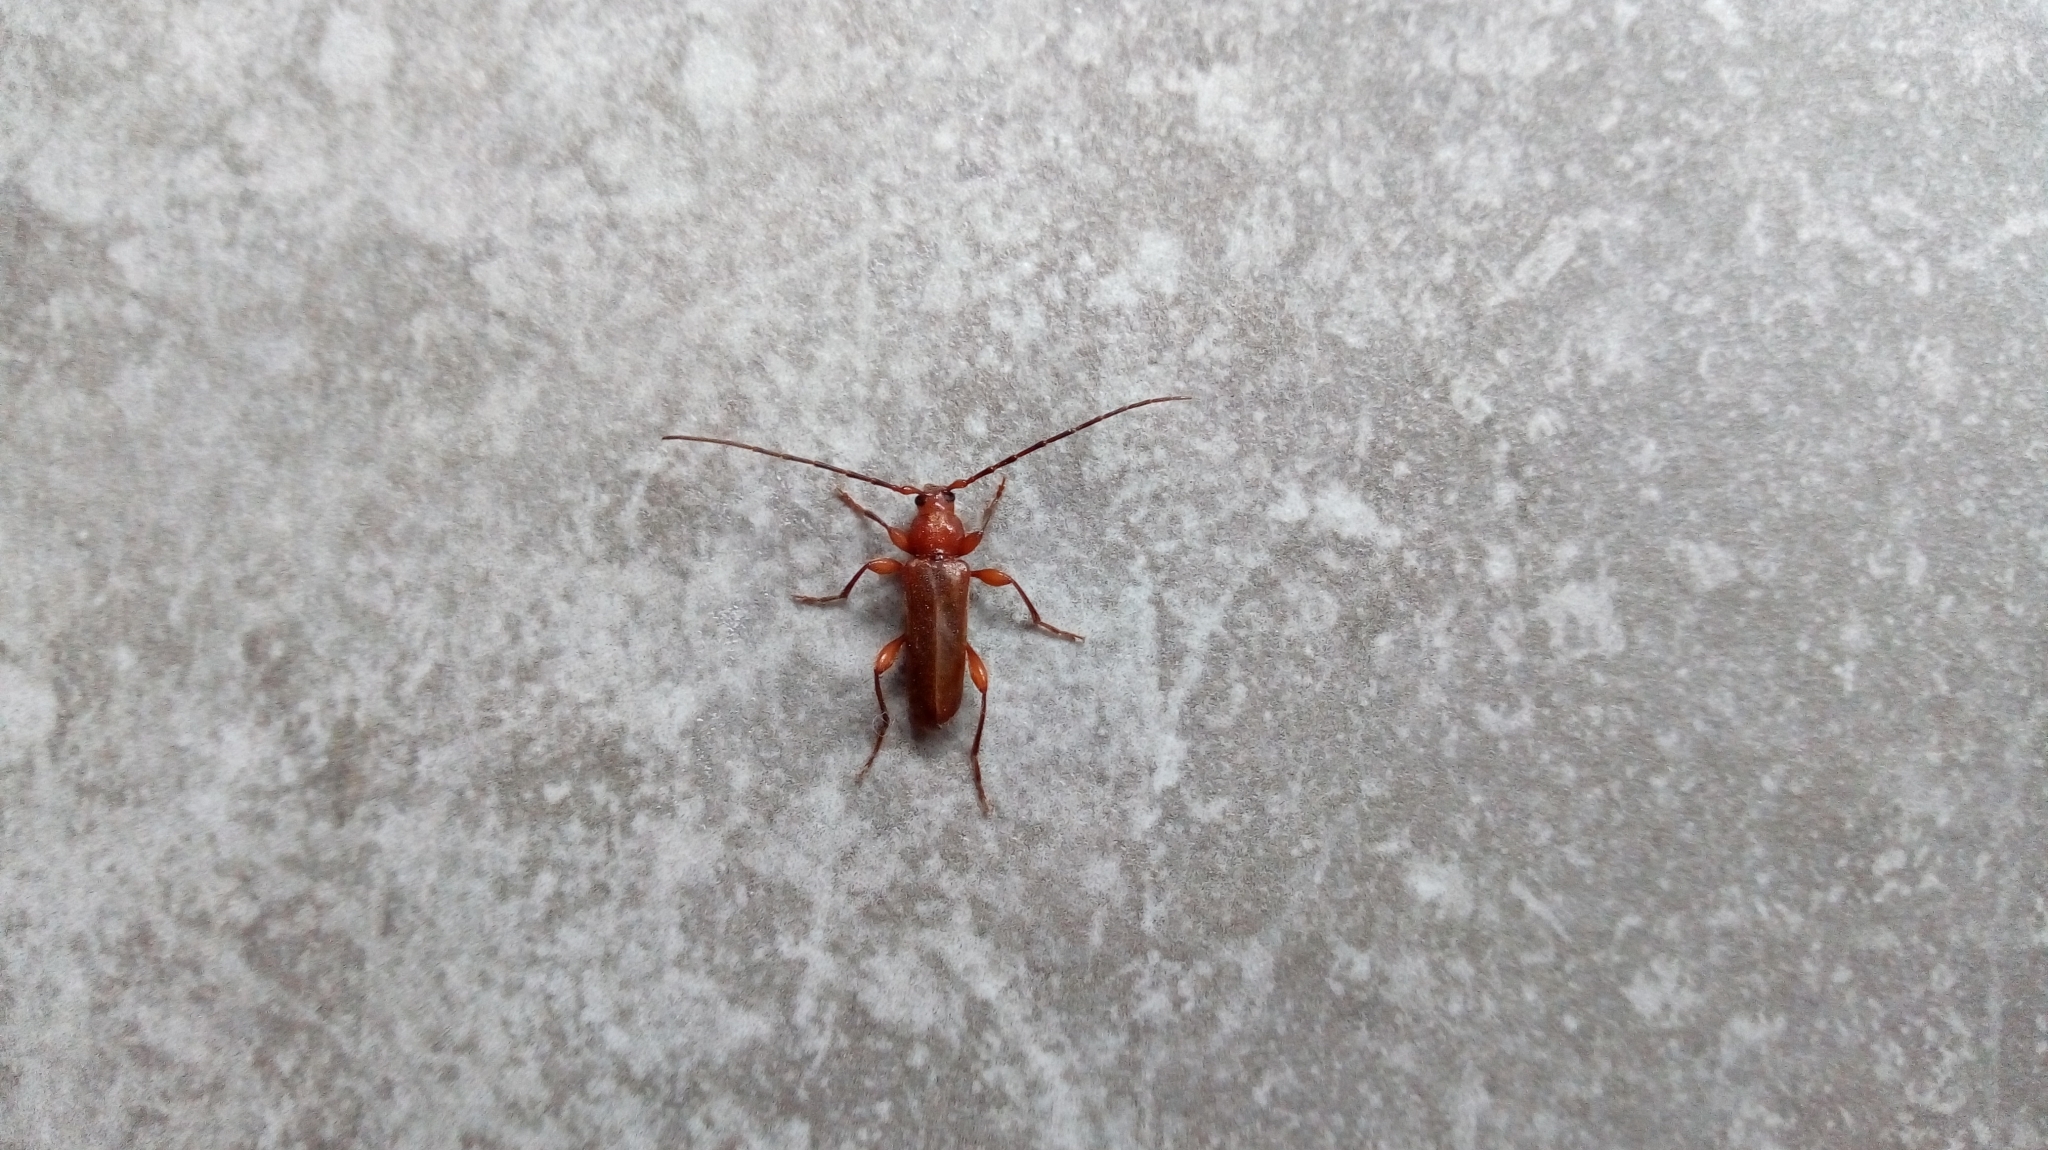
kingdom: Animalia
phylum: Arthropoda
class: Insecta
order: Coleoptera
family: Cerambycidae
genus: Phymatodes
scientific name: Phymatodes testaceus
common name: Long-horned beetle
